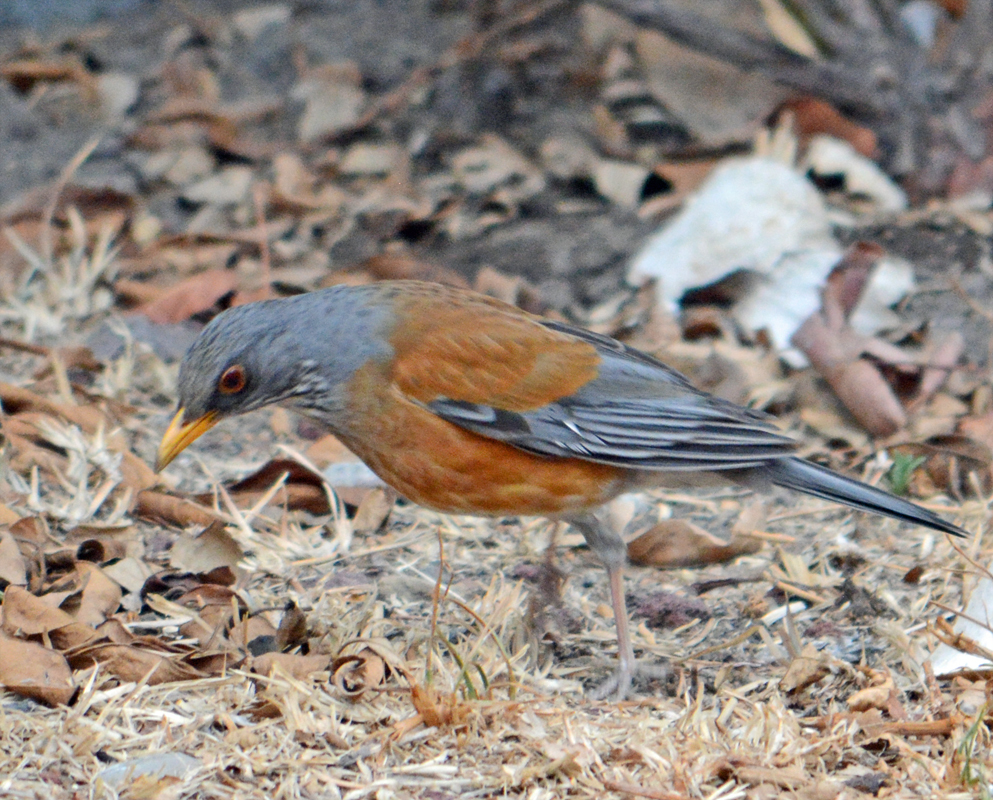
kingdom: Animalia
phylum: Chordata
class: Aves
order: Passeriformes
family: Turdidae
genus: Turdus
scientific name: Turdus rufopalliatus
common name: Rufous-backed robin
